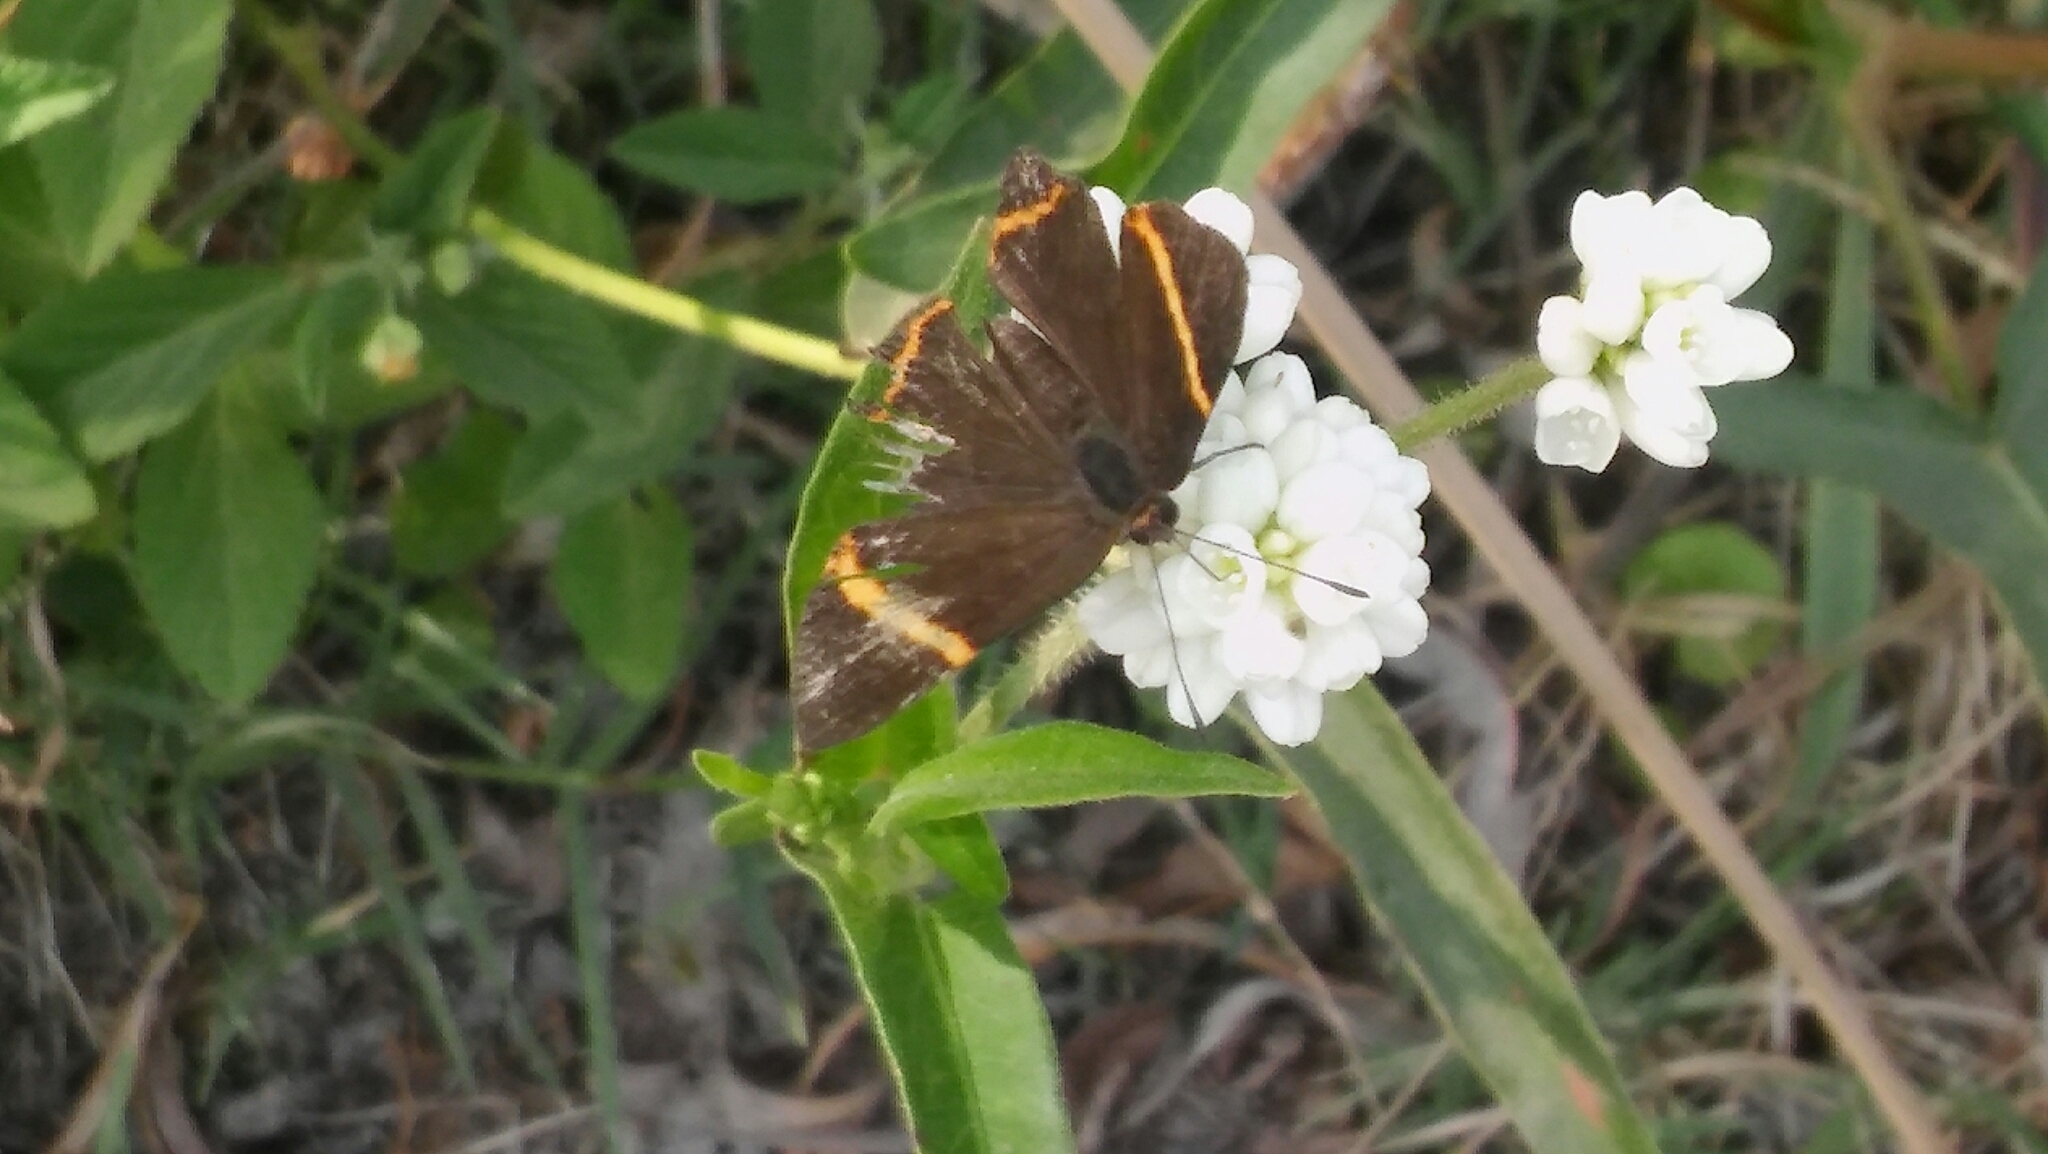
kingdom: Animalia
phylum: Arthropoda
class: Insecta
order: Lepidoptera
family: Riodinidae
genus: Riodina
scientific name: Riodina lysippoides
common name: Little dancer metalmark
